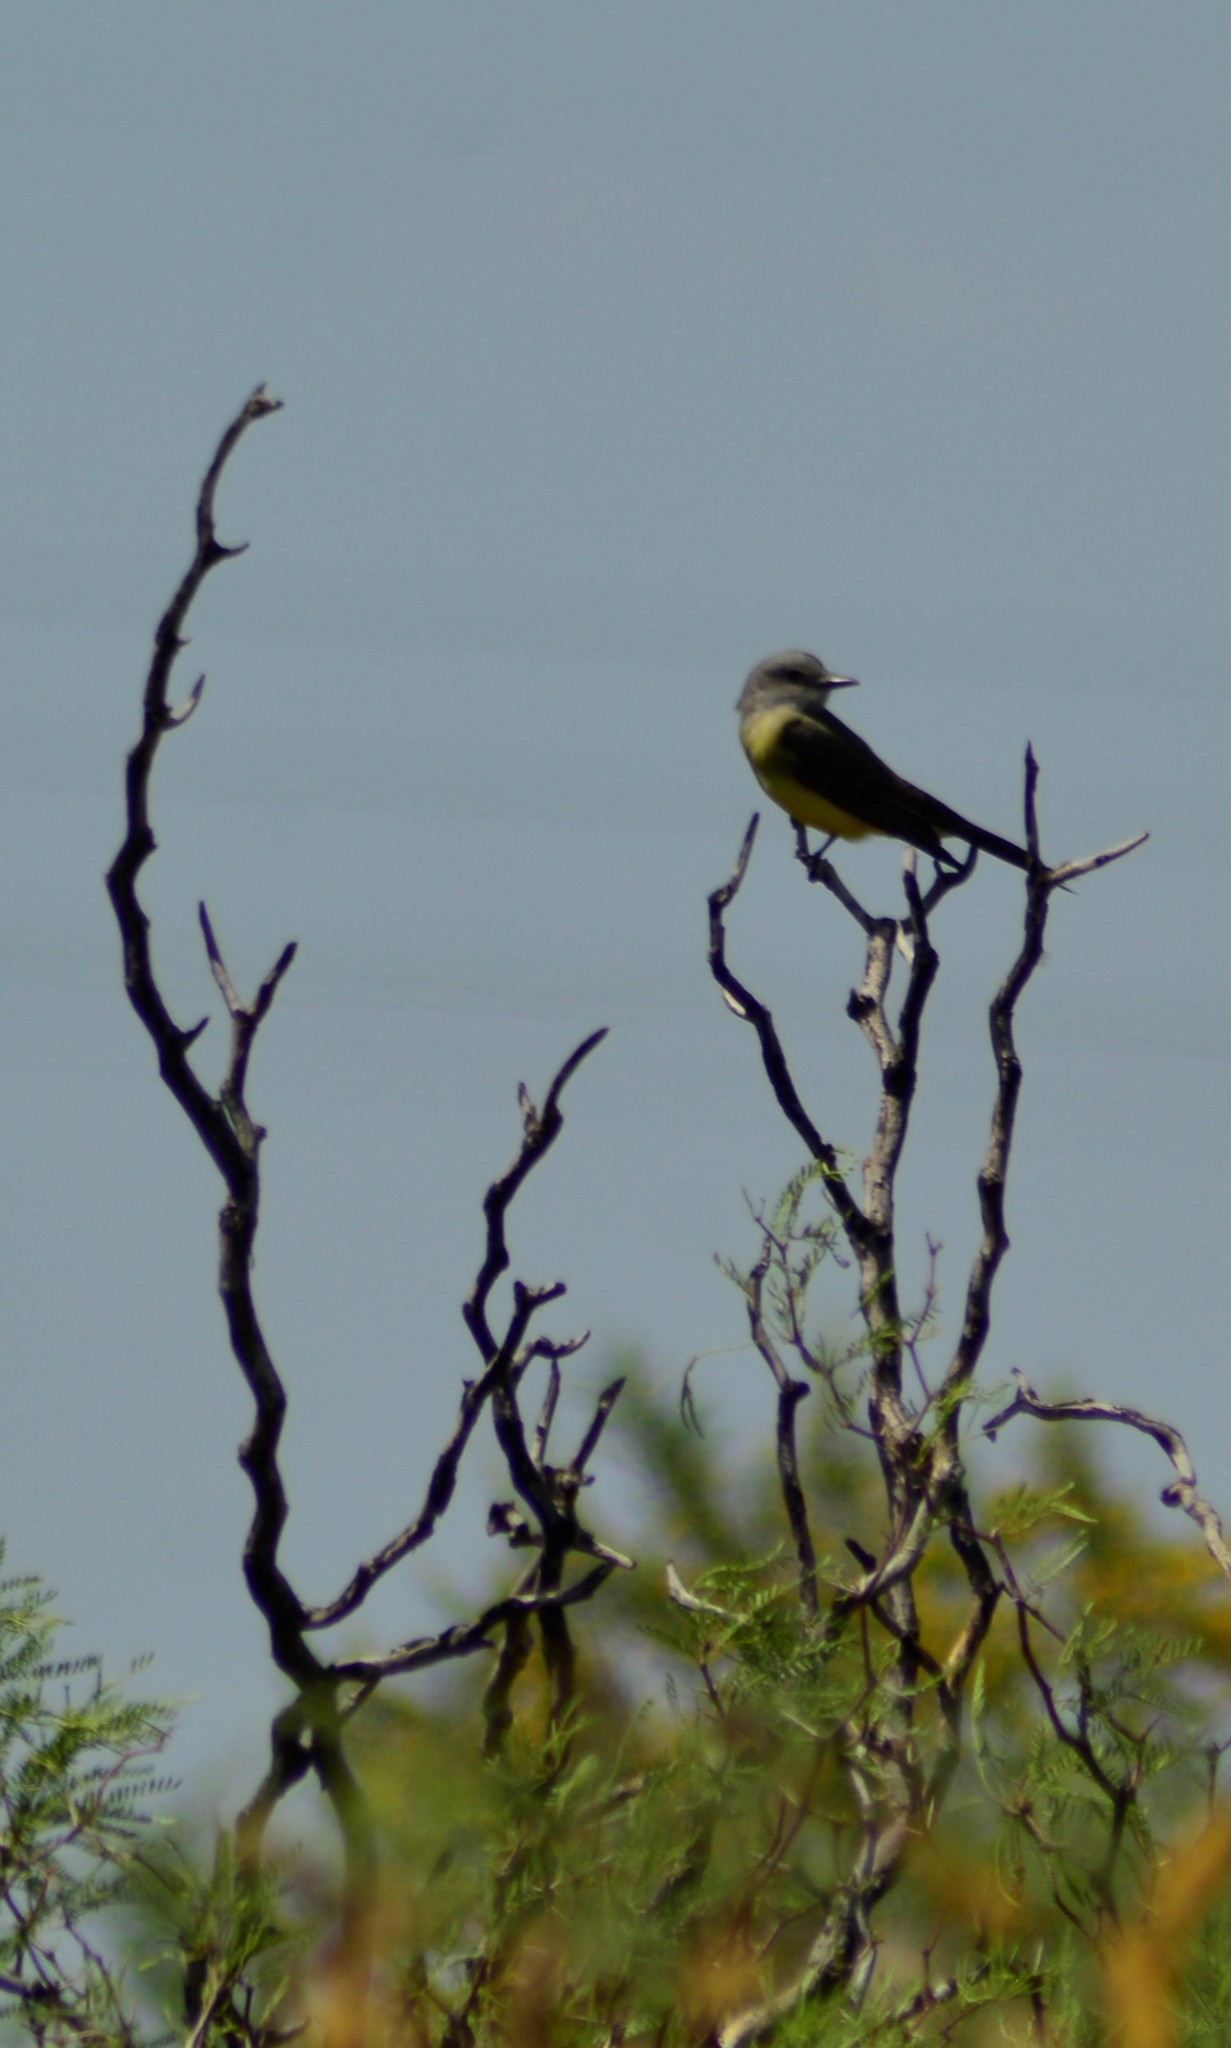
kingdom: Animalia
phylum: Chordata
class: Aves
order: Passeriformes
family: Tyrannidae
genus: Tyrannus
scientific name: Tyrannus melancholicus
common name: Tropical kingbird
